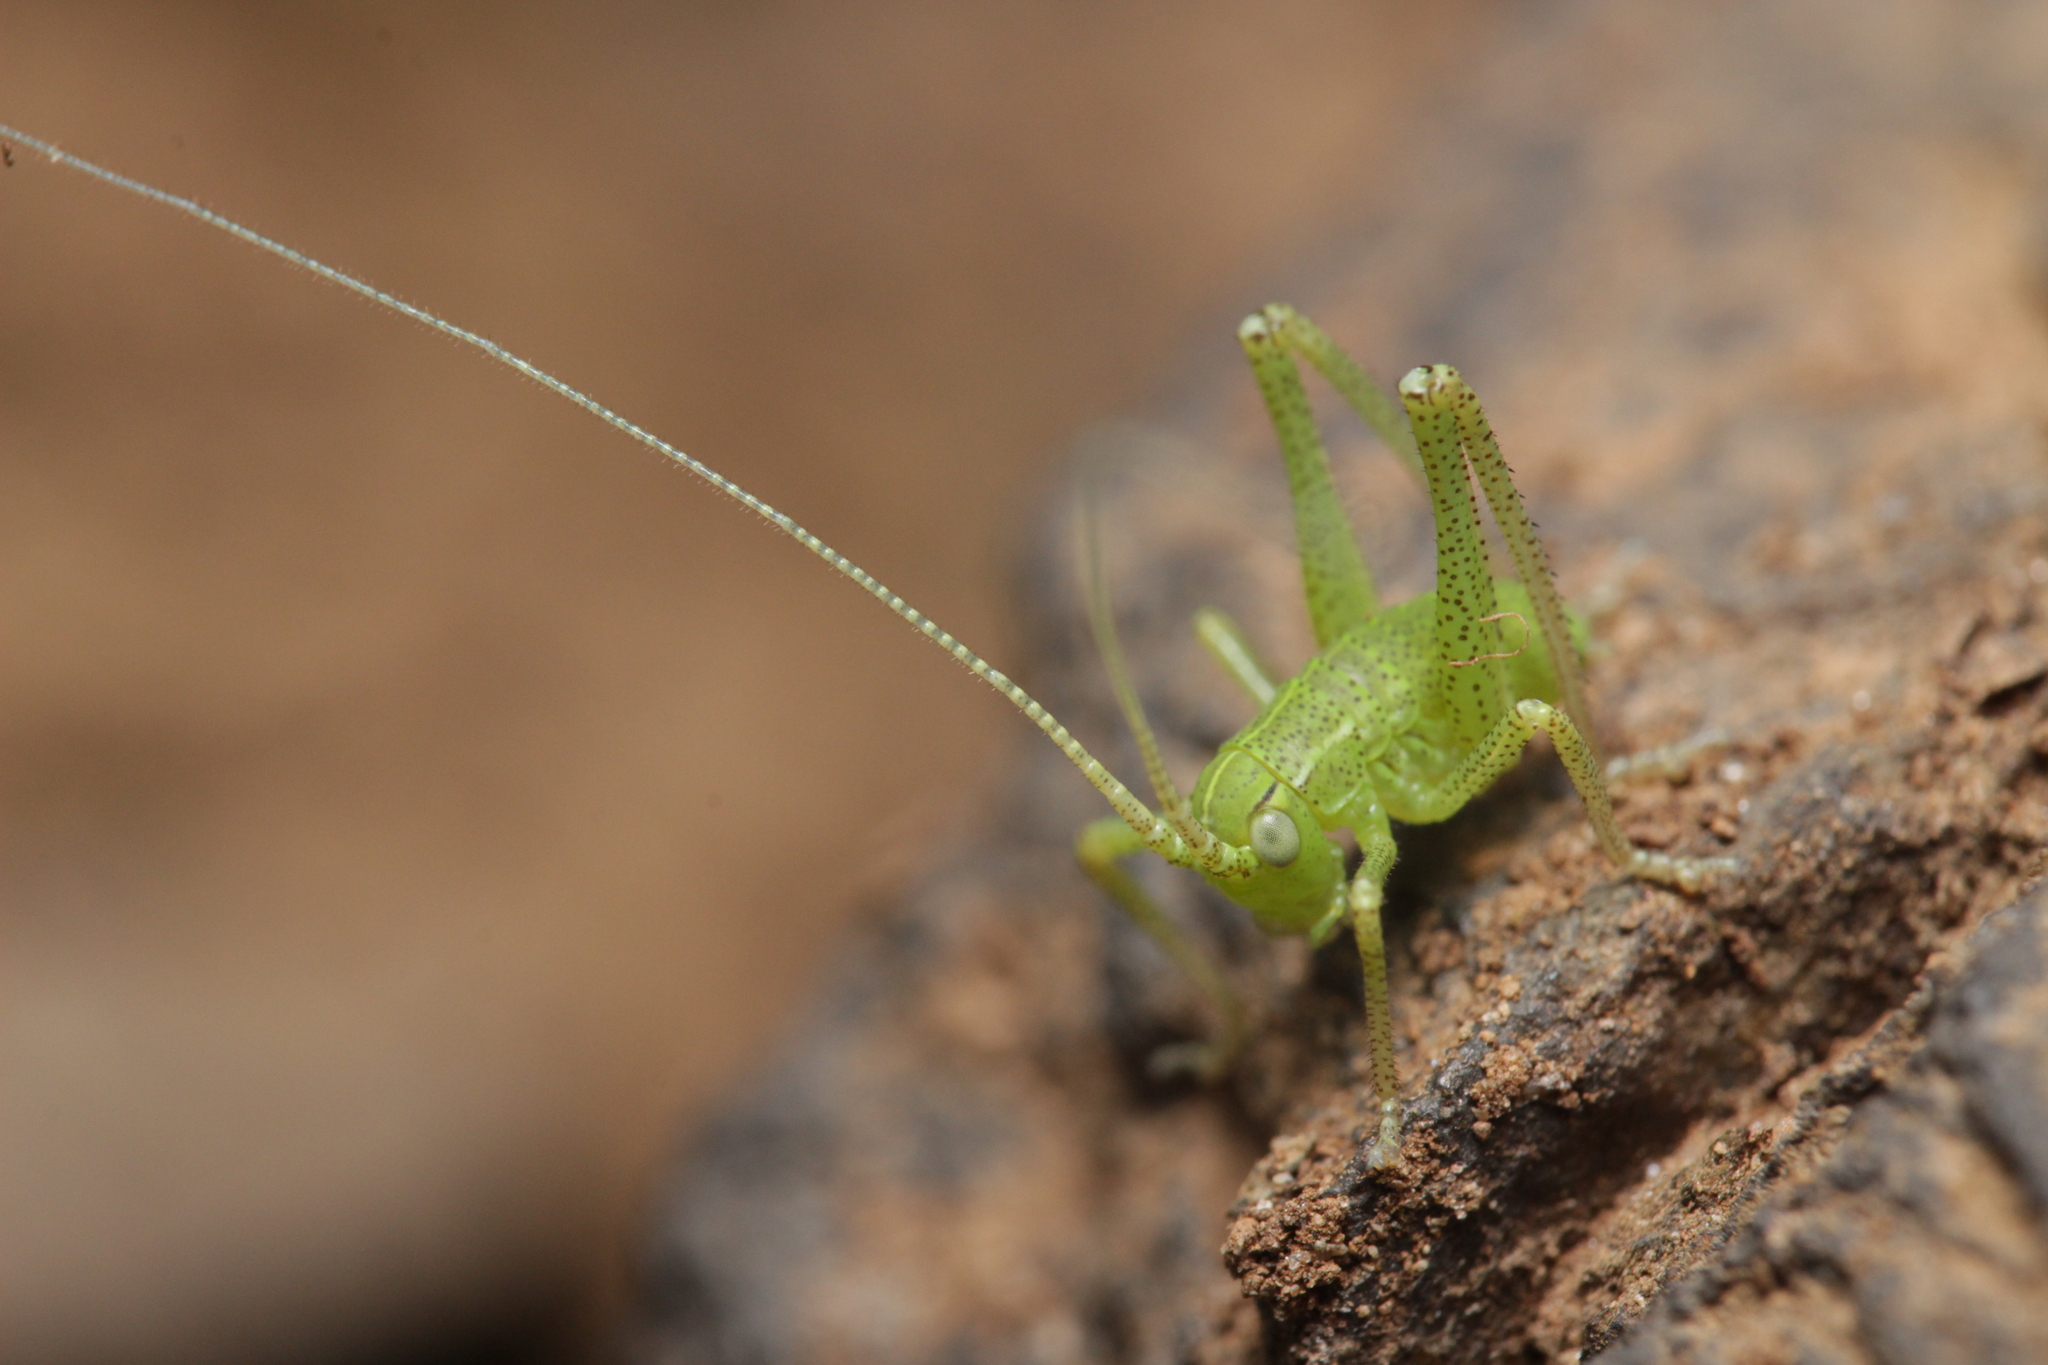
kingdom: Animalia
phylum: Arthropoda
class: Insecta
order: Orthoptera
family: Tettigoniidae
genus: Barbitistes
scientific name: Barbitistes serricauda
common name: Saw-tailed bush-cricket
